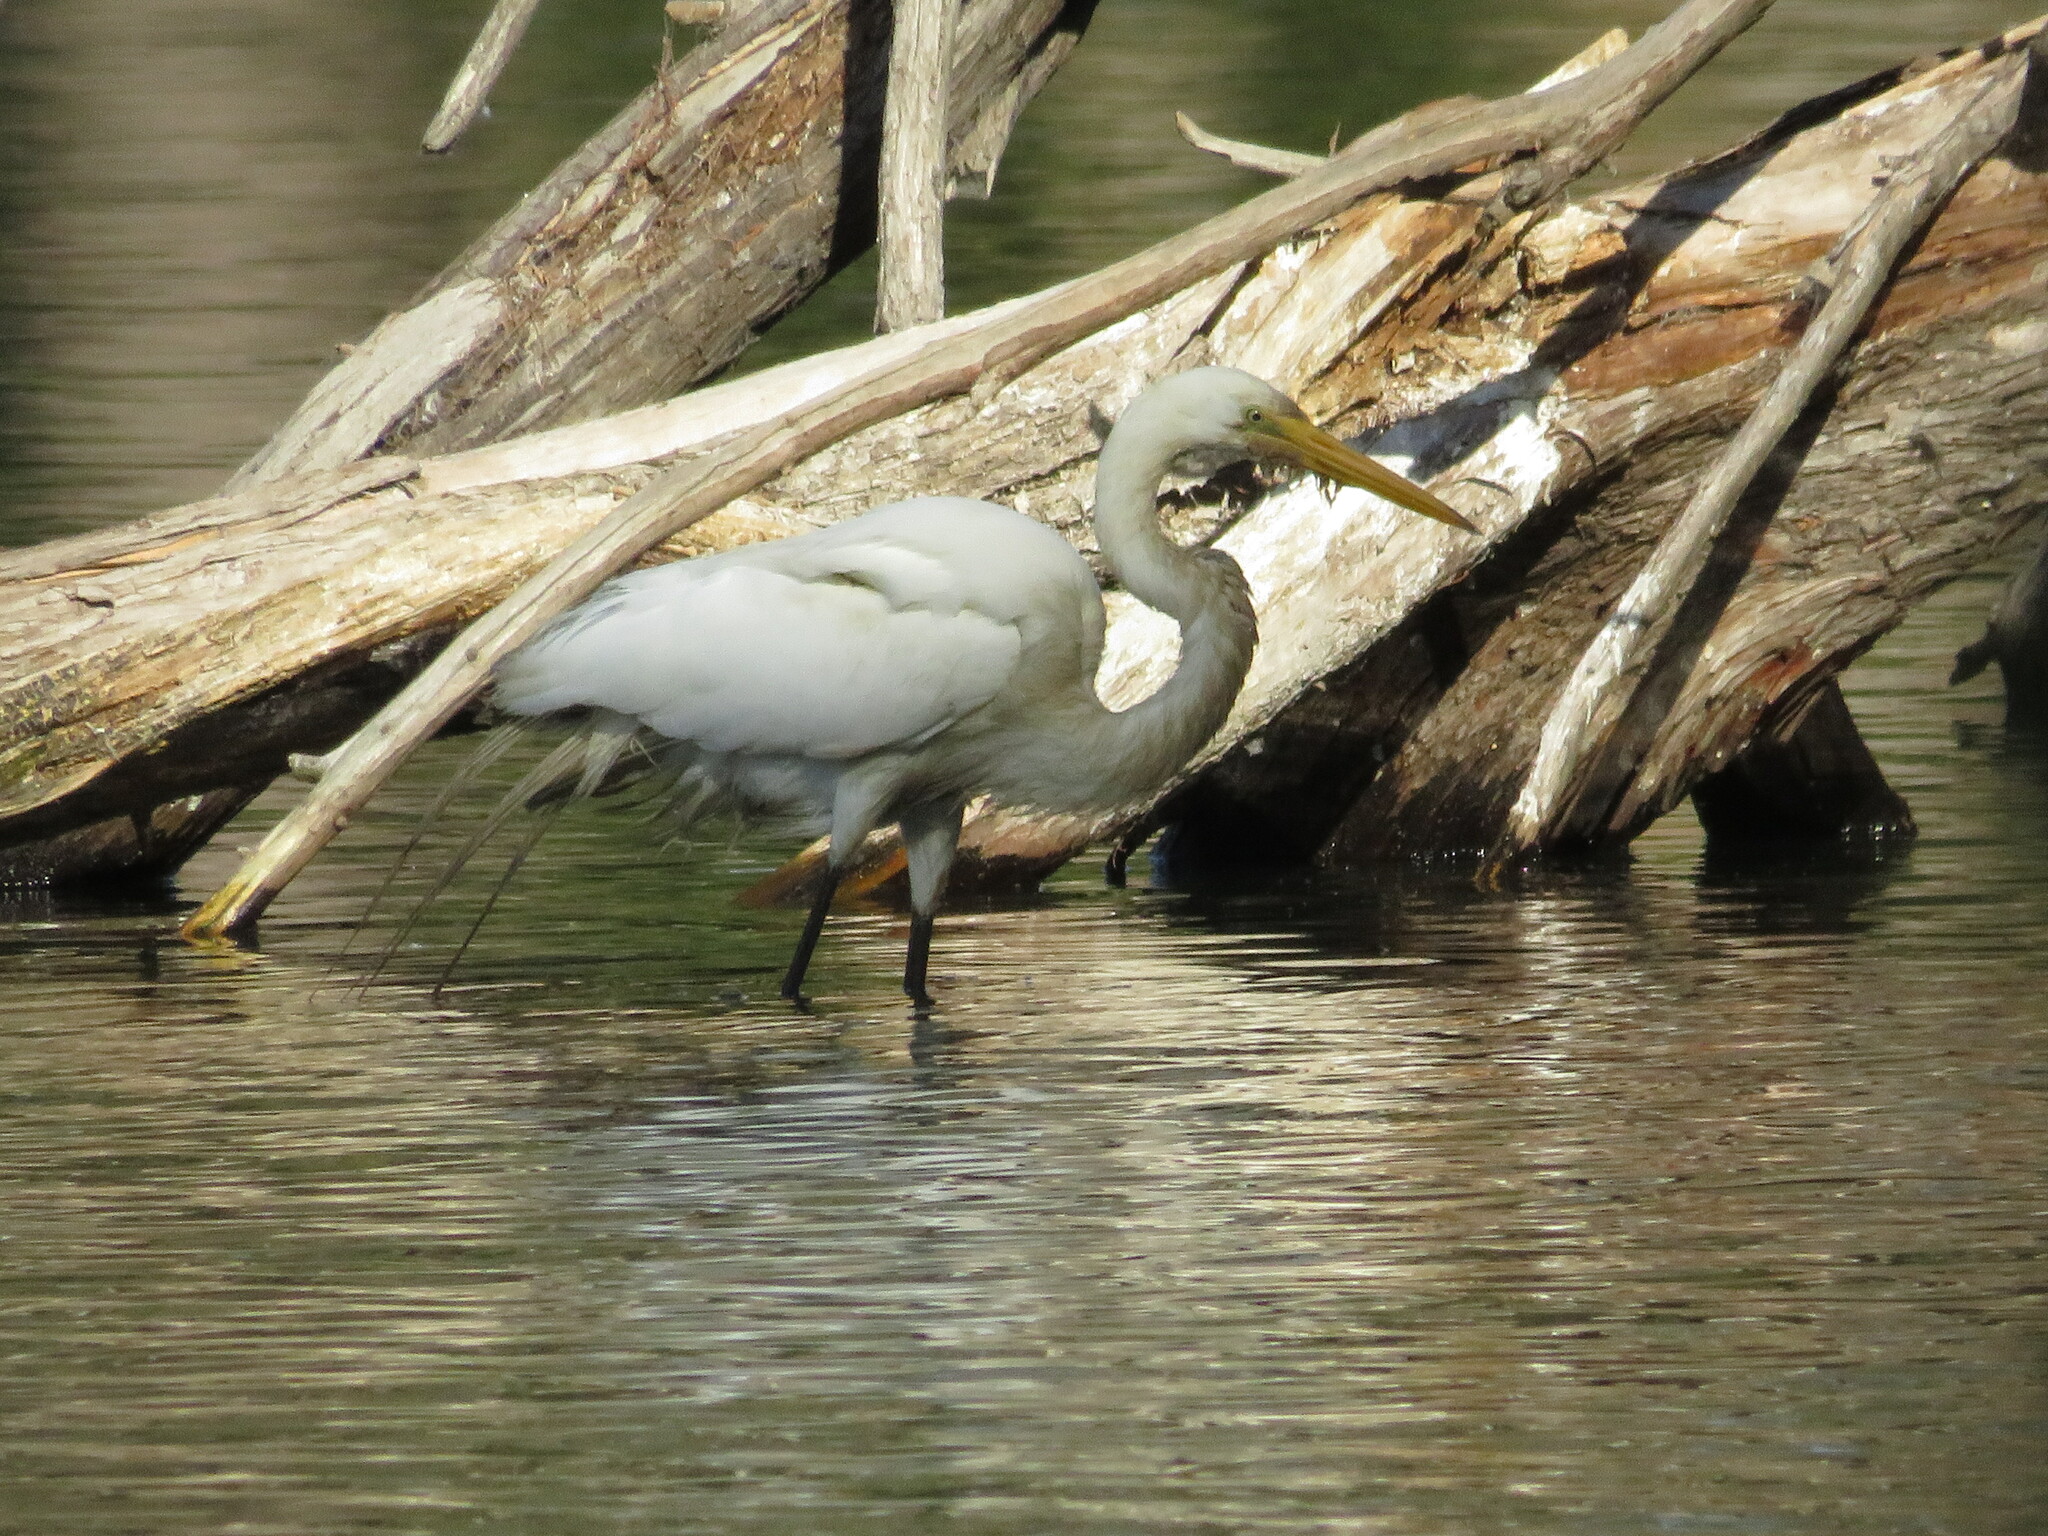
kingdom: Animalia
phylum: Chordata
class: Aves
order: Pelecaniformes
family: Ardeidae
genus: Ardea
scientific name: Ardea alba
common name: Great egret
